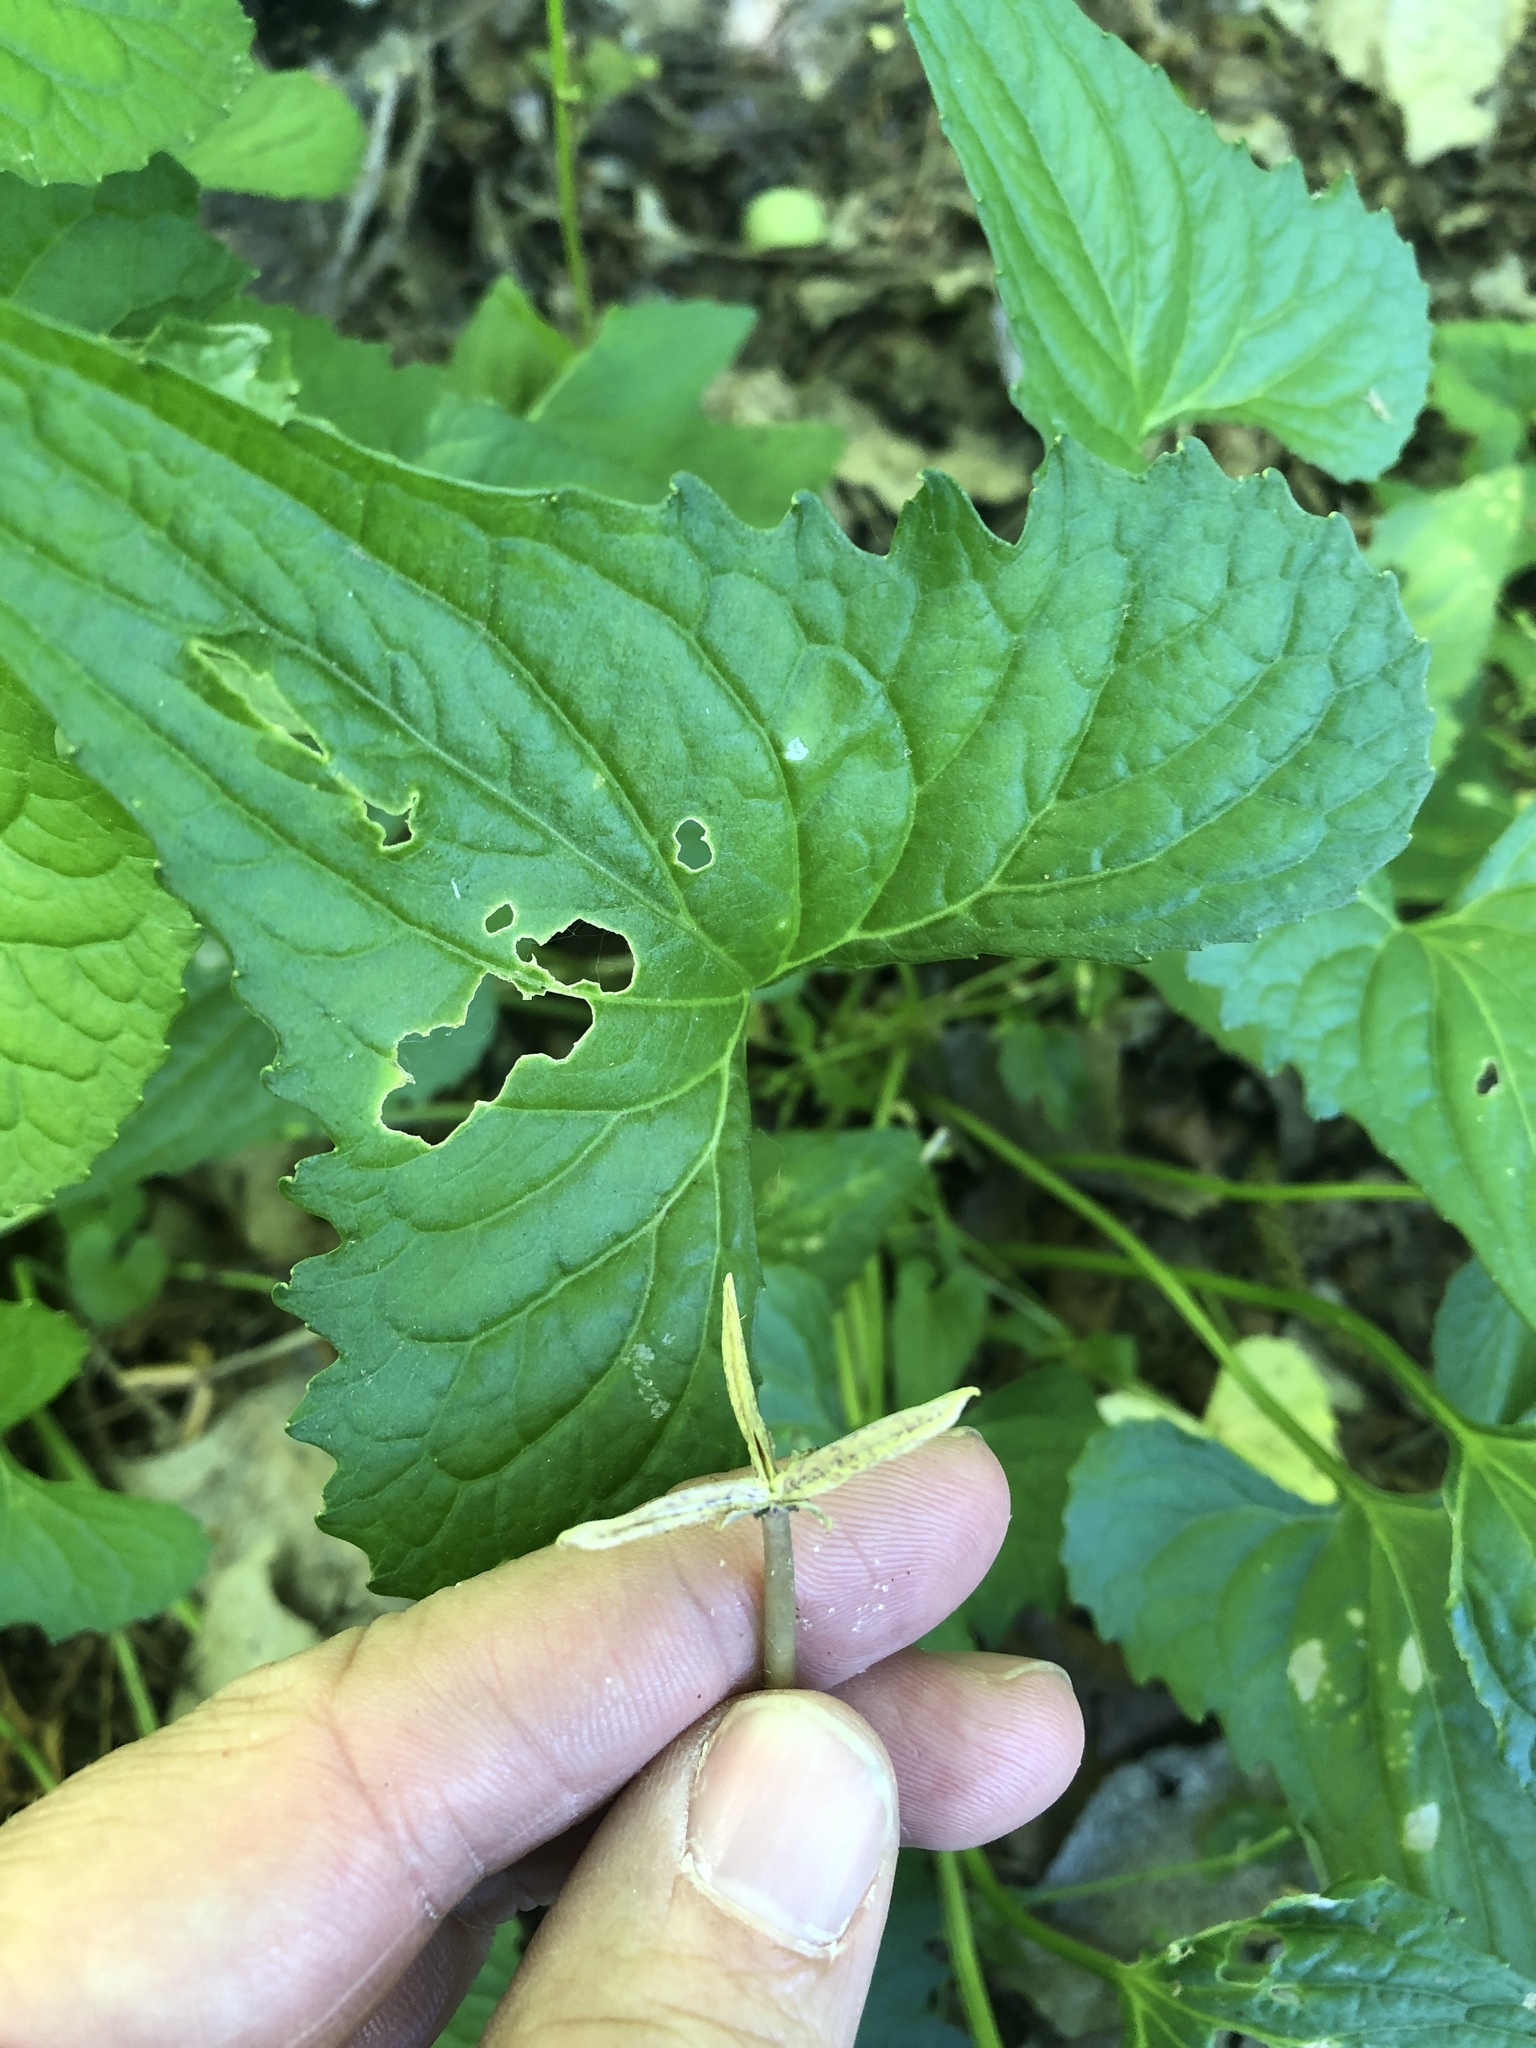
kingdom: Plantae
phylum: Tracheophyta
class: Magnoliopsida
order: Malpighiales
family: Violaceae
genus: Viola
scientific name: Viola missouriensis
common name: Missouri violet
